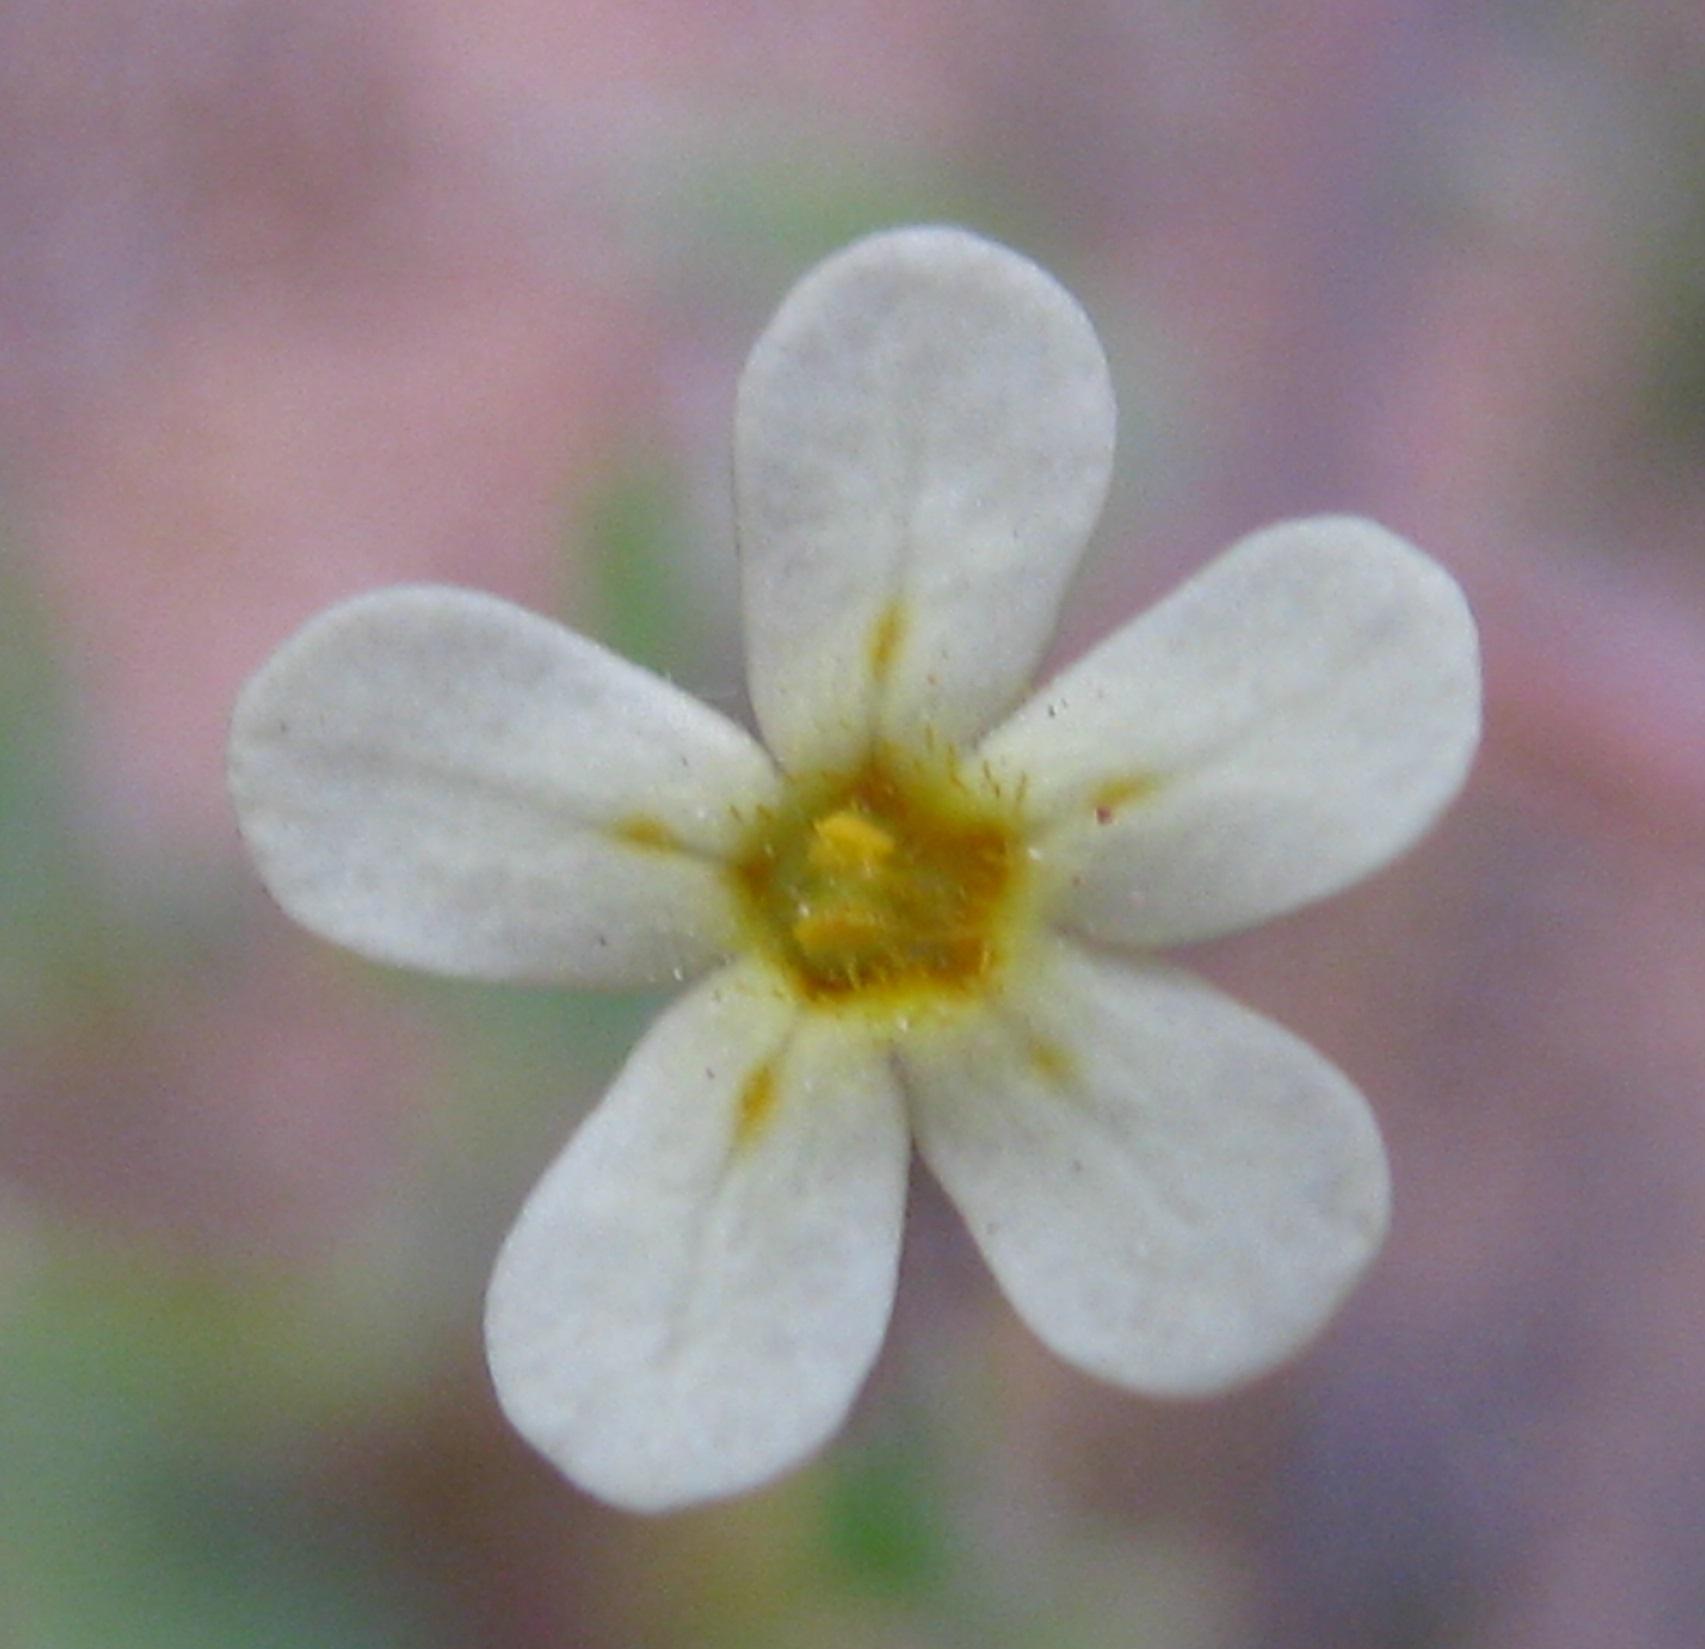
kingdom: Plantae
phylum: Tracheophyta
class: Magnoliopsida
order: Lamiales
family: Scrophulariaceae
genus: Zaluzianskya
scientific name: Zaluzianskya pusilla
